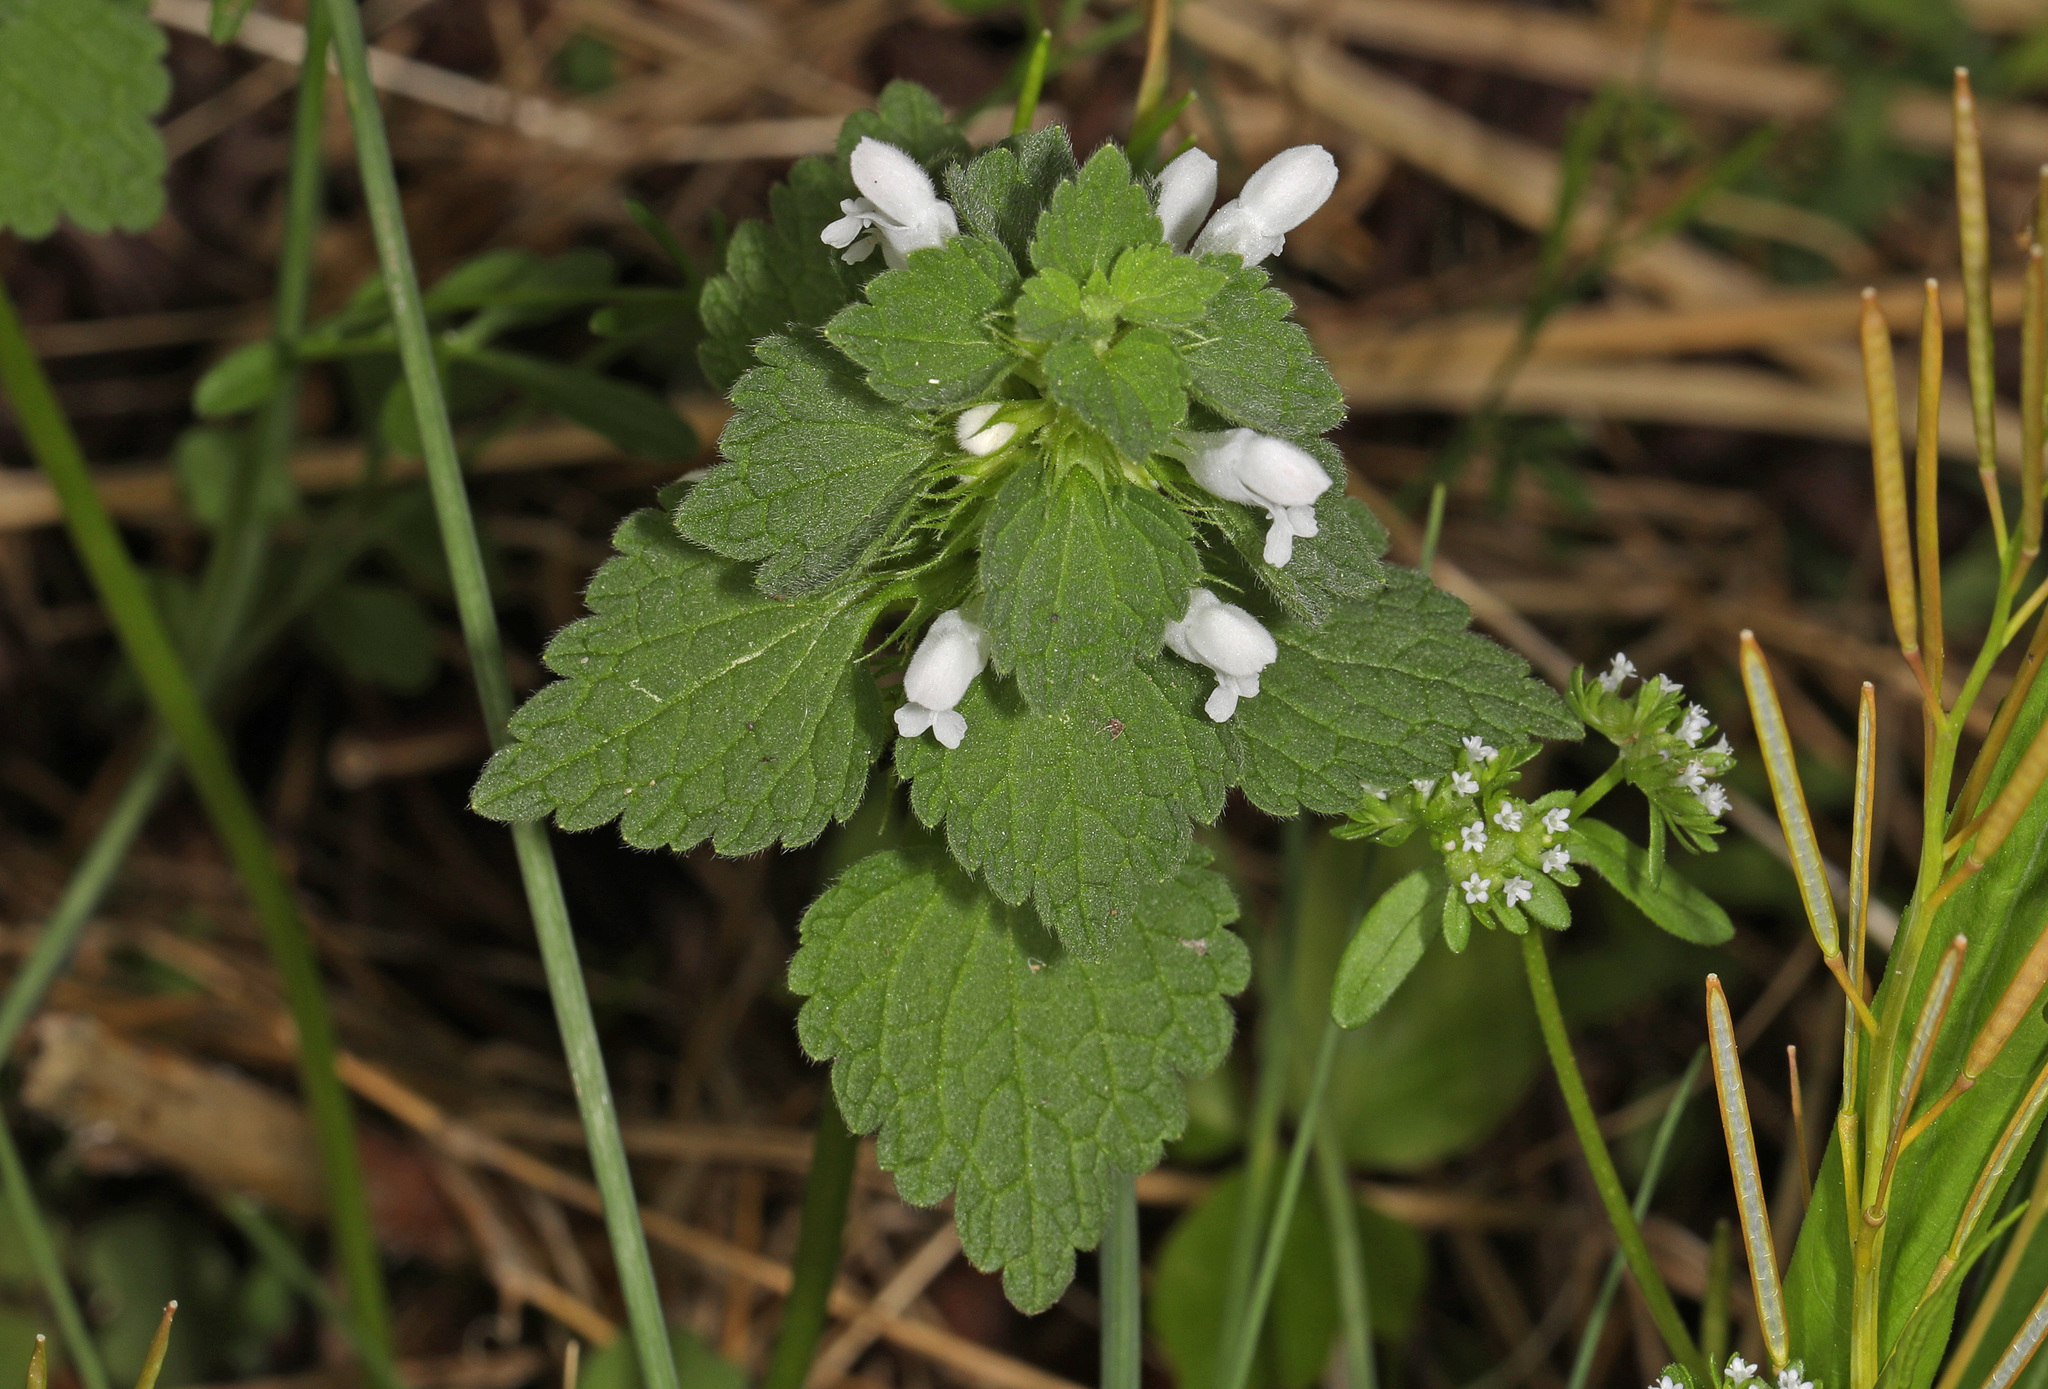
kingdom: Plantae
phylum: Tracheophyta
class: Magnoliopsida
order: Lamiales
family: Lamiaceae
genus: Lamium
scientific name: Lamium purpureum
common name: Red dead-nettle
